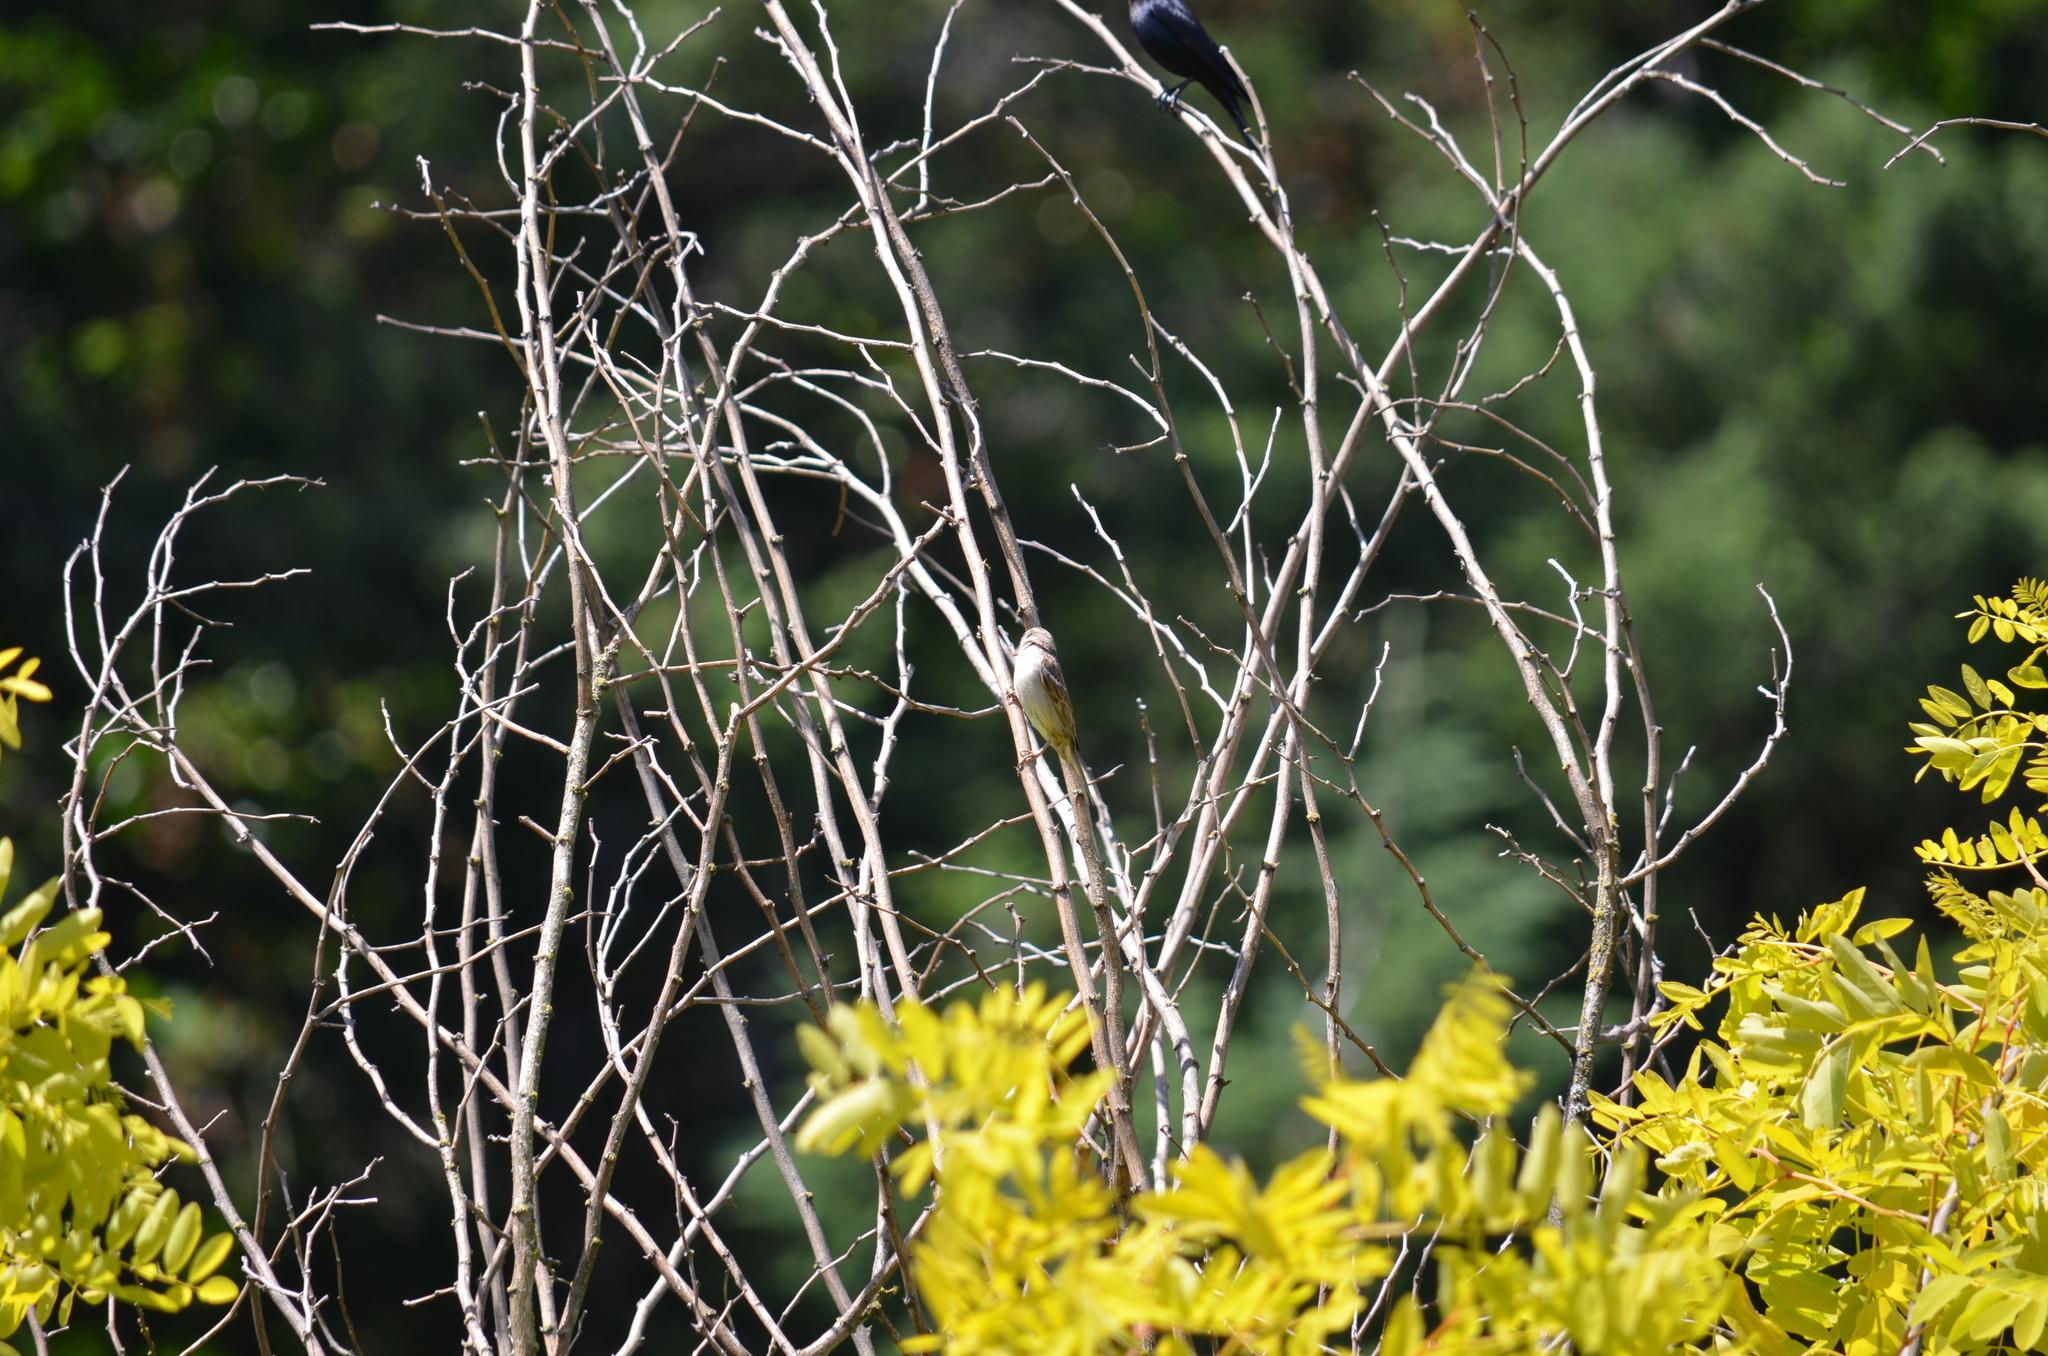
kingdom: Animalia
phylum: Chordata
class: Aves
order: Passeriformes
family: Passeridae
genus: Passer
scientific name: Passer domesticus
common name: House sparrow
